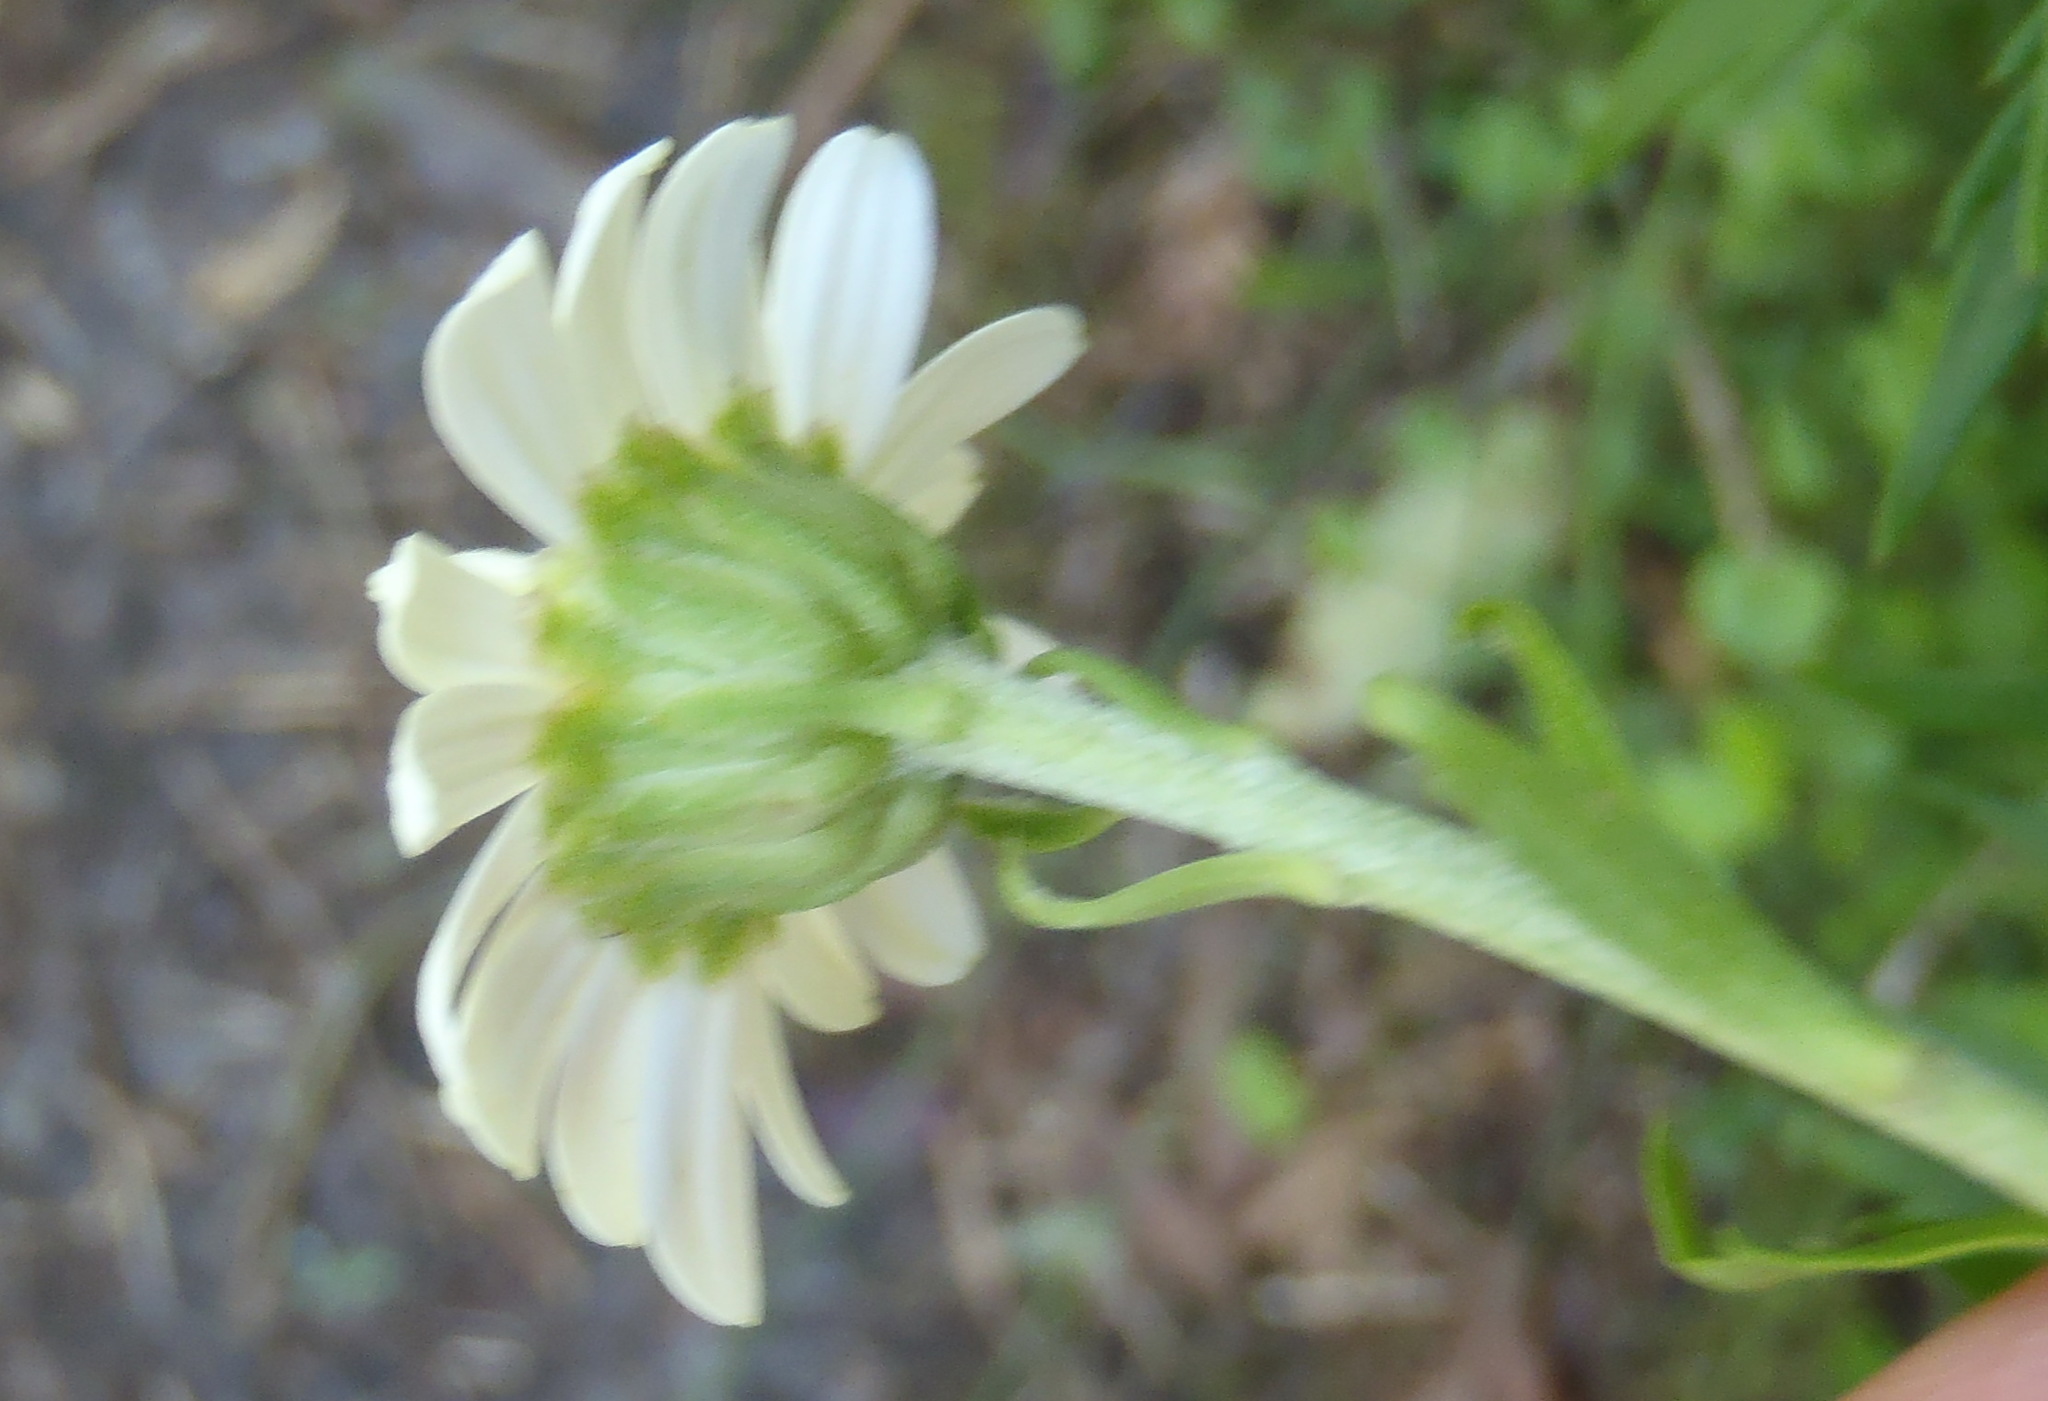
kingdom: Plantae
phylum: Tracheophyta
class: Magnoliopsida
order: Asterales
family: Asteraceae
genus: Osmitopsis
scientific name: Osmitopsis osmitoides
